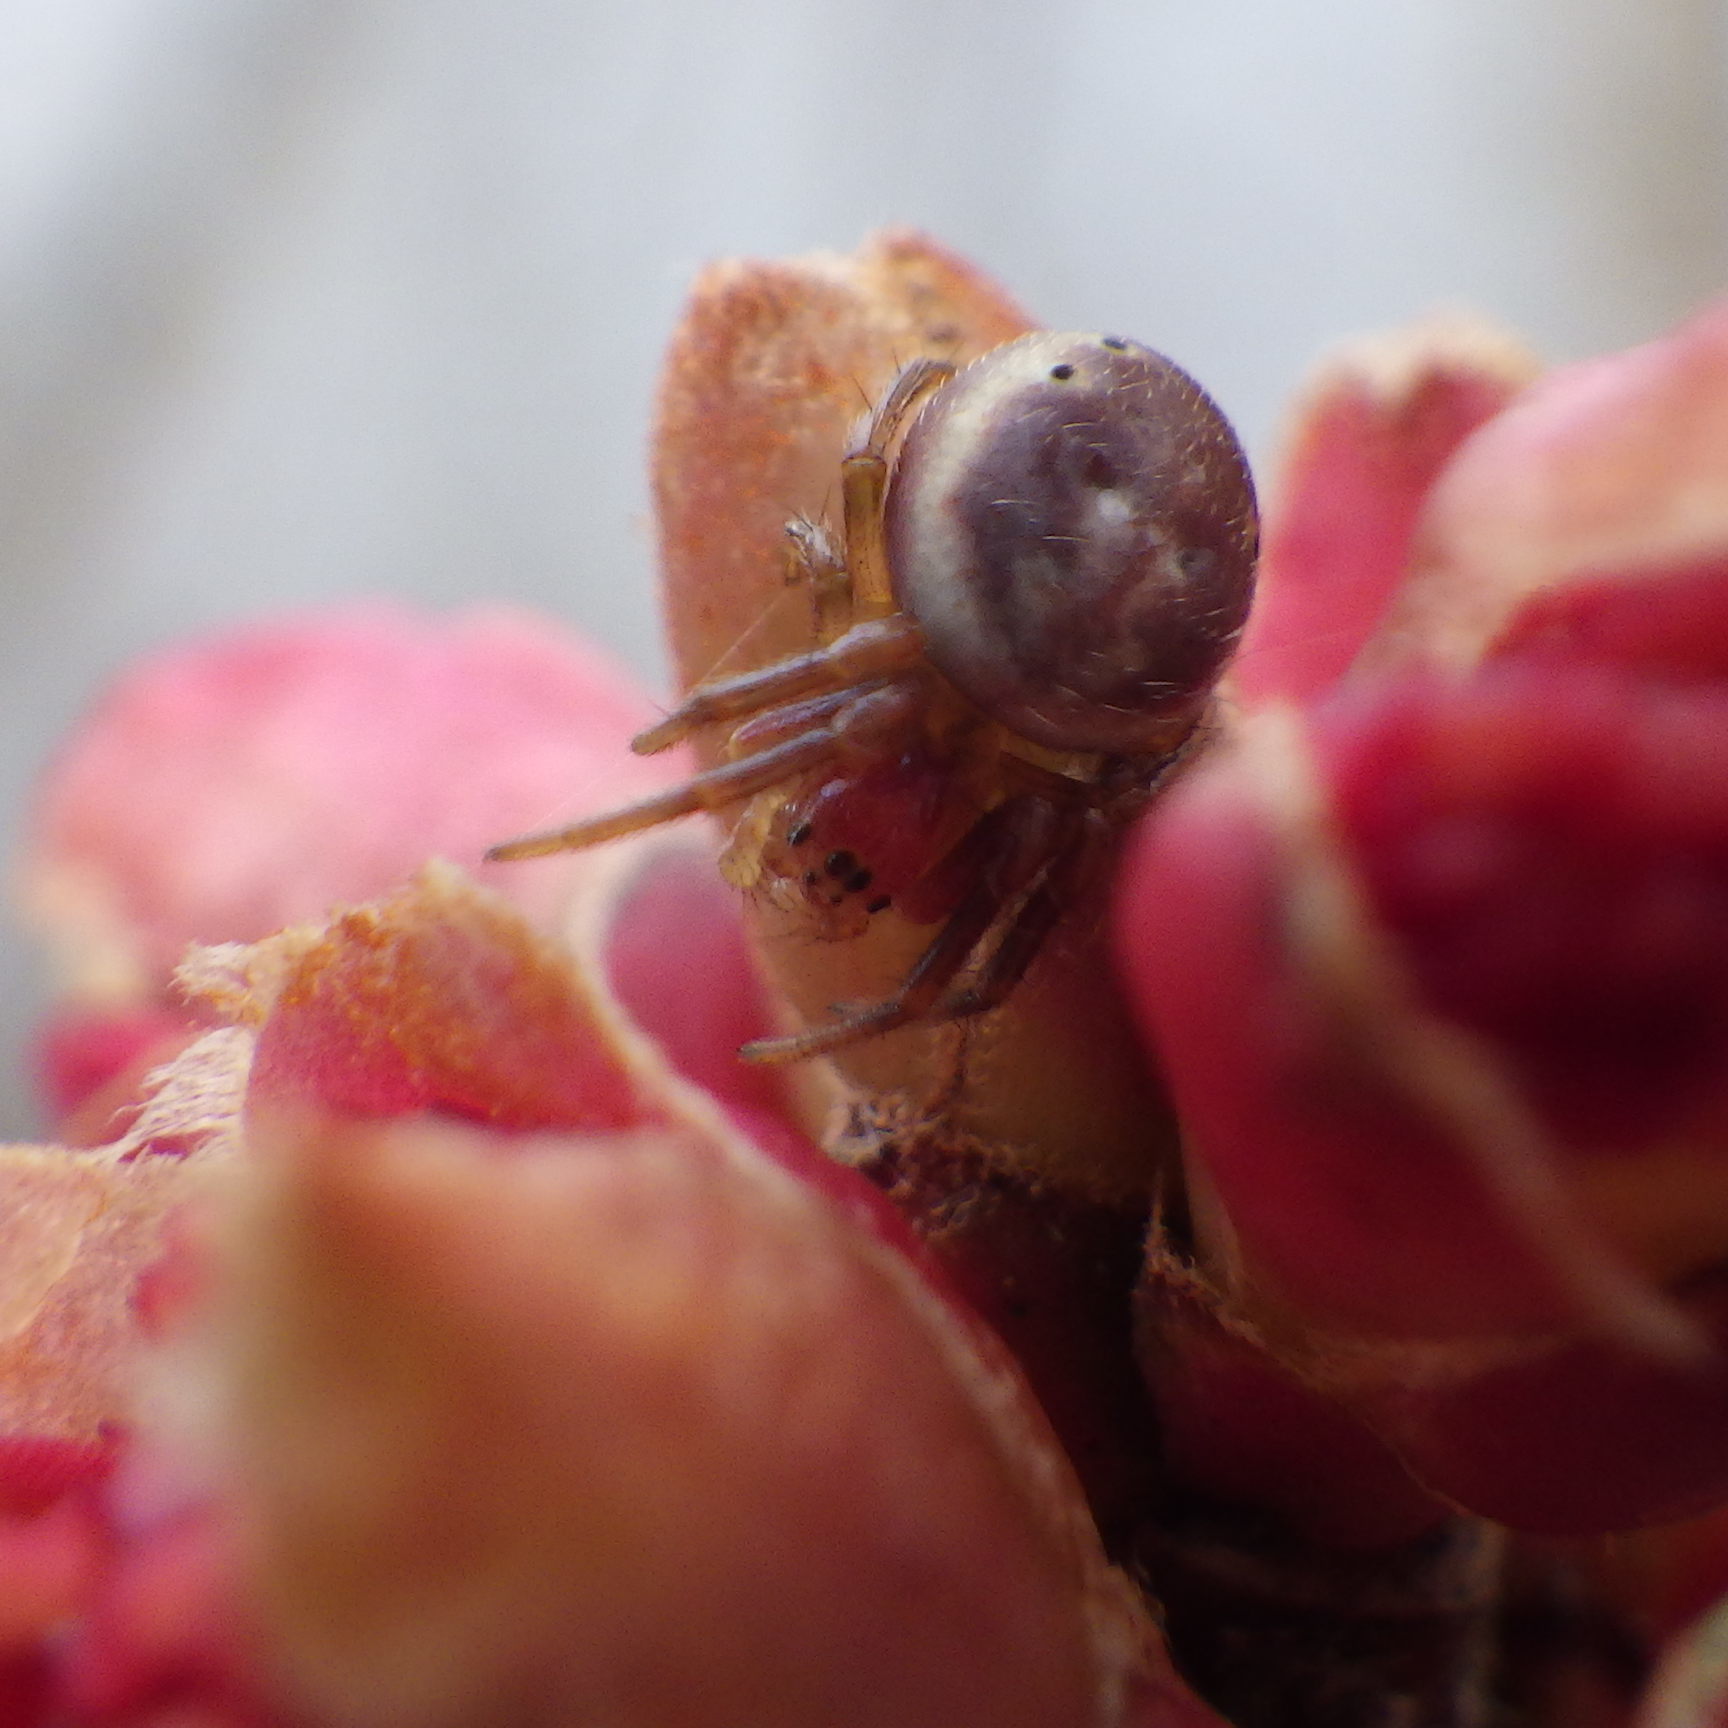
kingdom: Animalia
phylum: Arthropoda
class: Arachnida
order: Araneae
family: Araneidae
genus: Araniella
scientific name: Araniella displicata
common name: Sixspotted orb weaver
